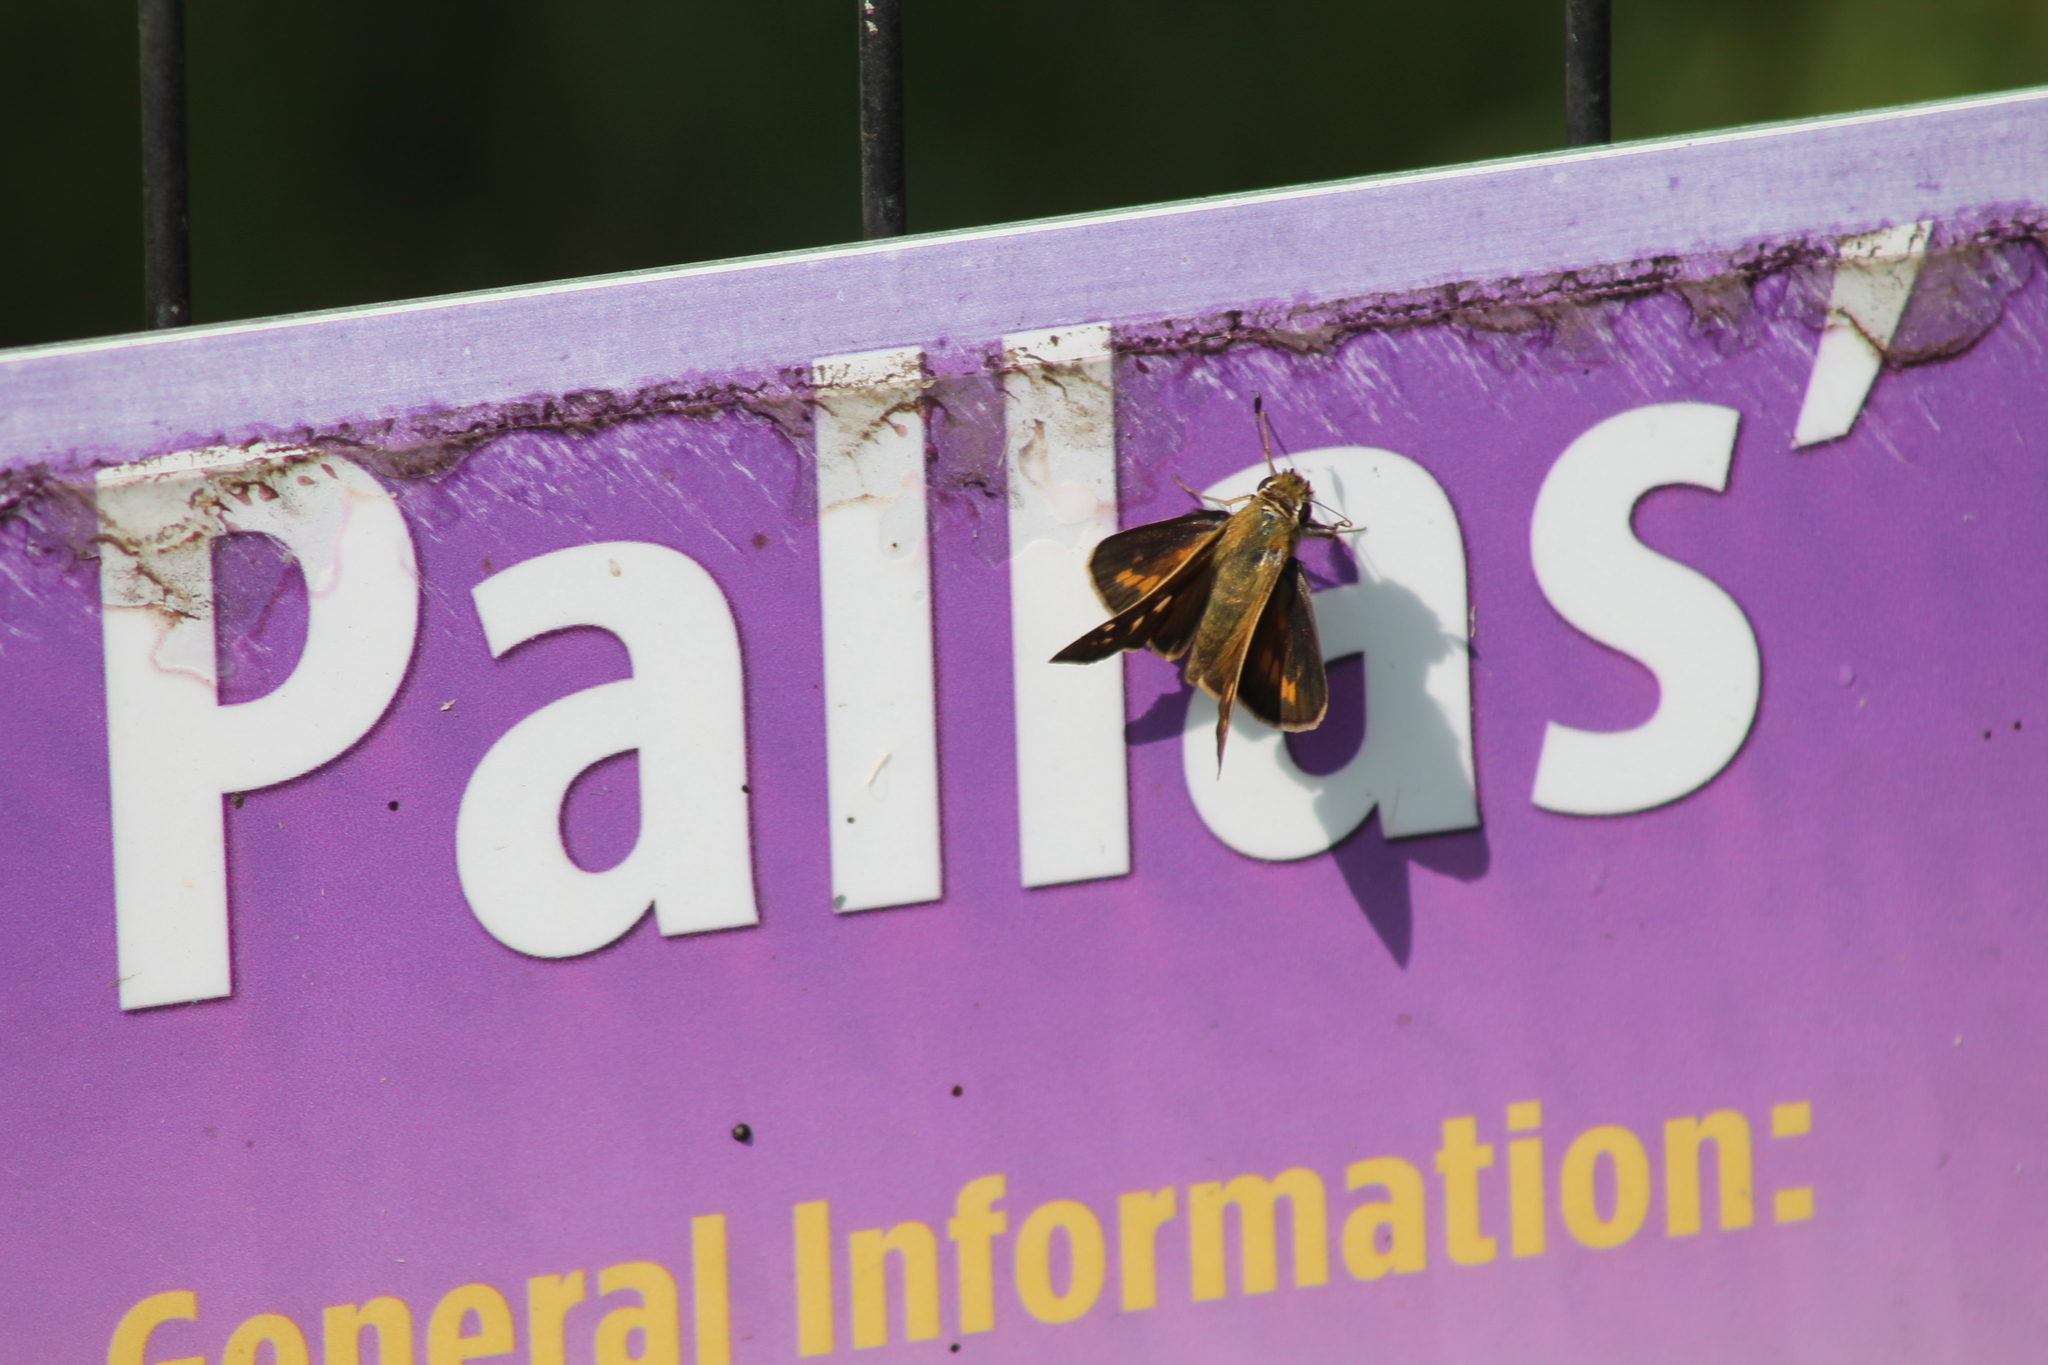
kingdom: Animalia
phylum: Arthropoda
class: Insecta
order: Lepidoptera
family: Hesperiidae
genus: Atalopedes
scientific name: Atalopedes
